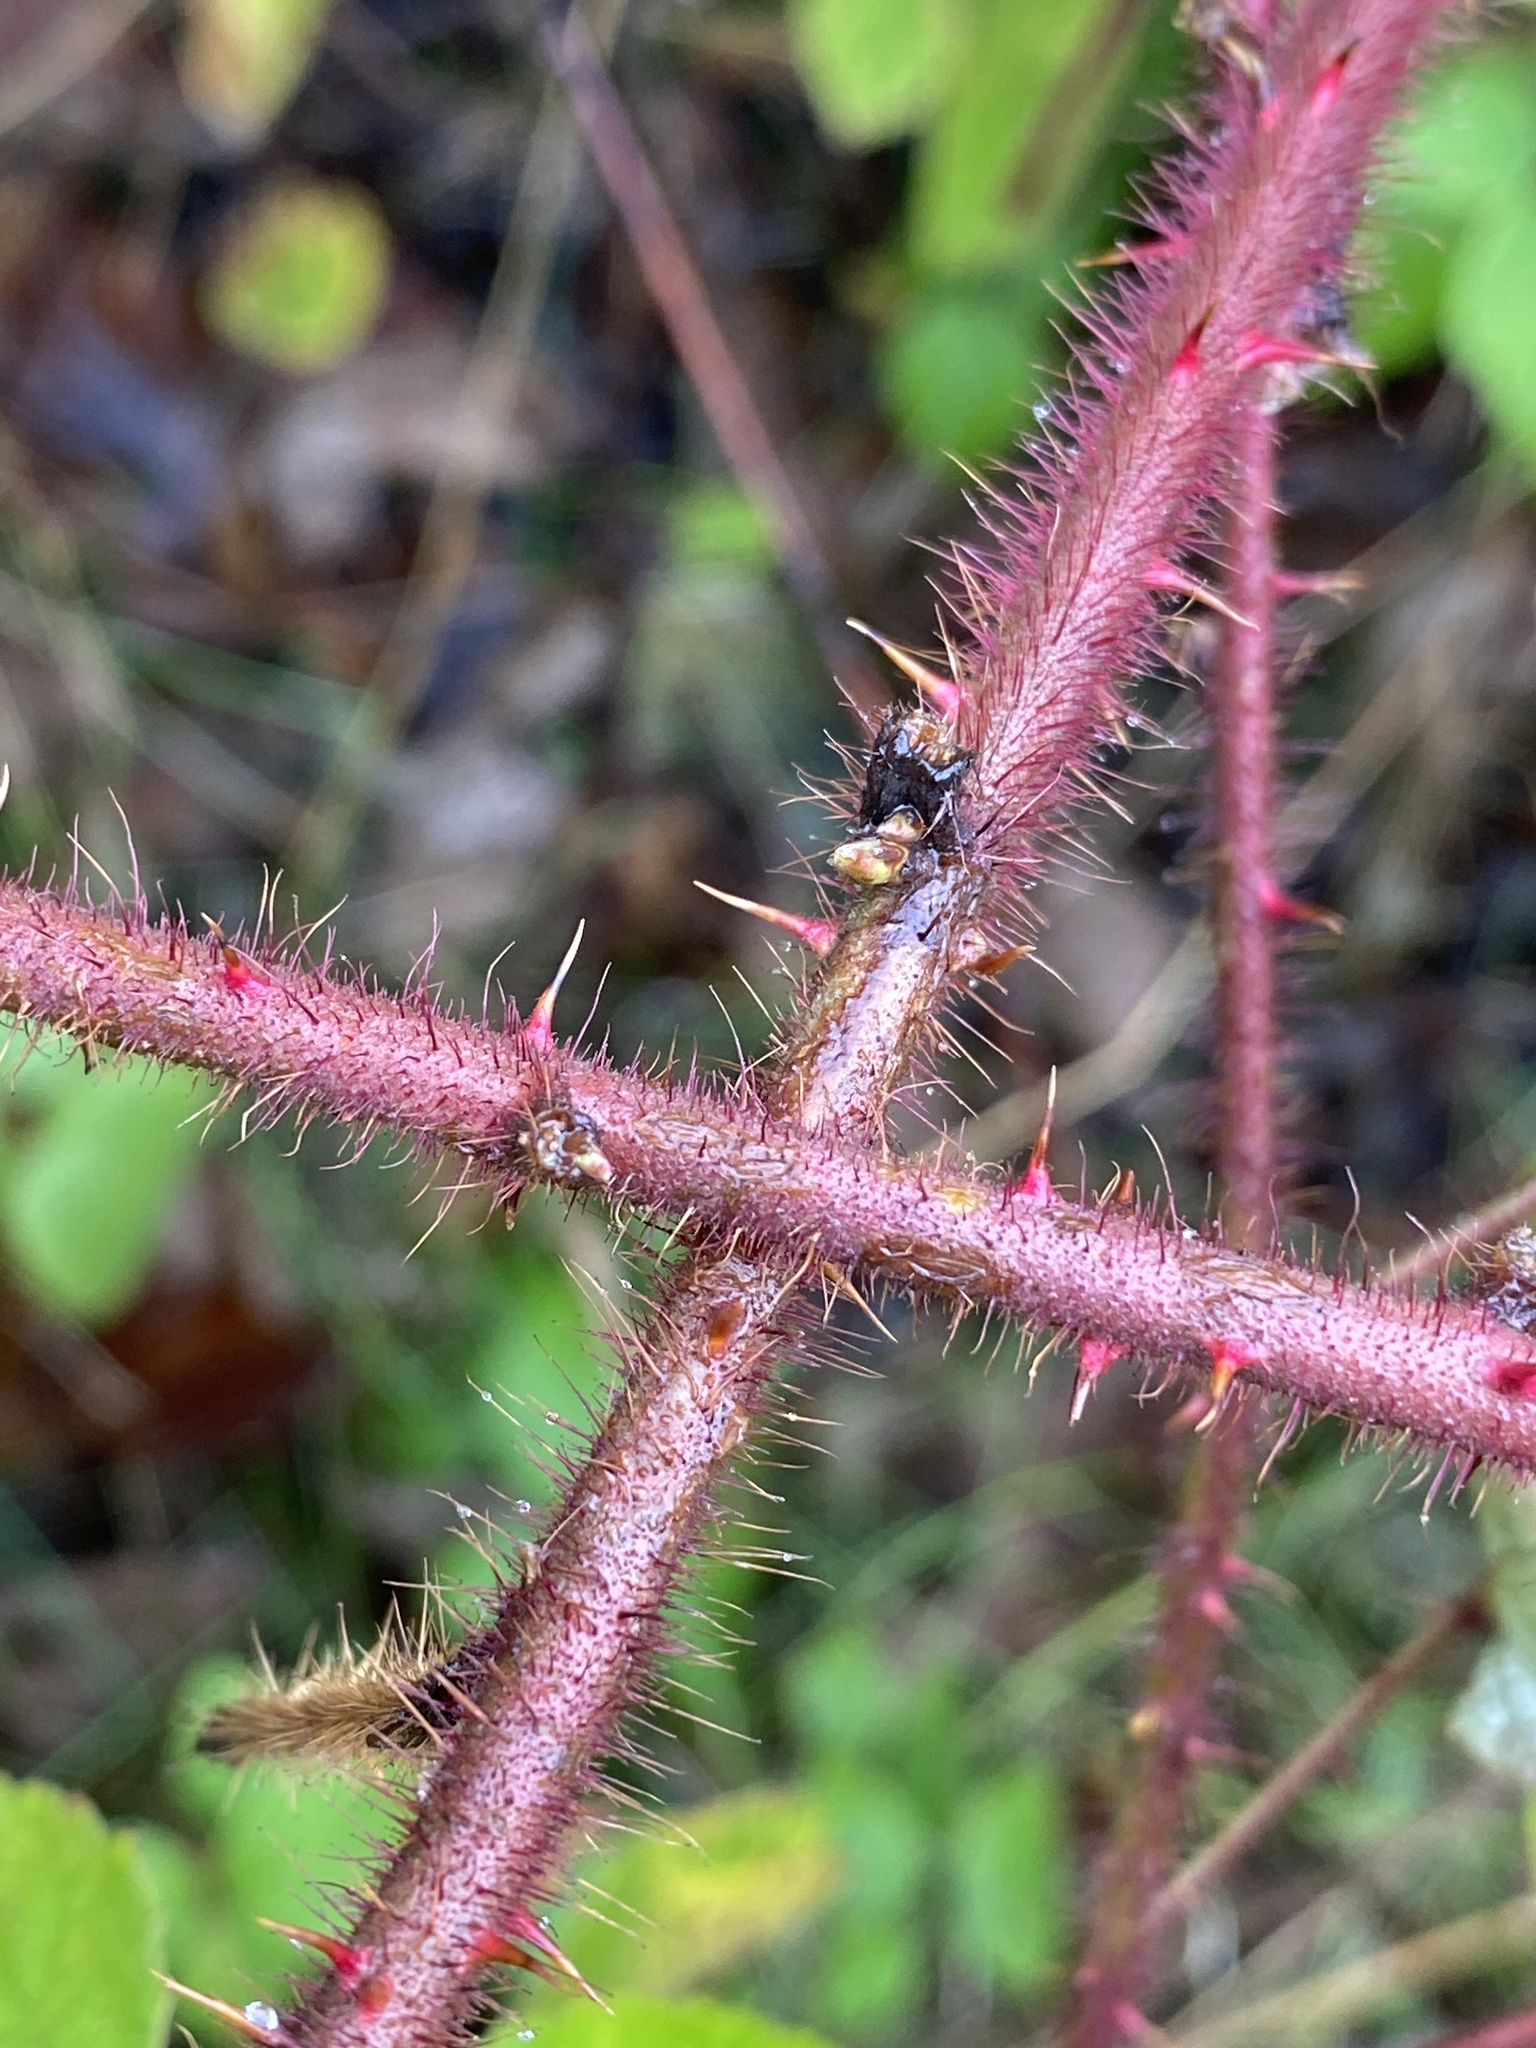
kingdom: Plantae
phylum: Tracheophyta
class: Magnoliopsida
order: Rosales
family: Rosaceae
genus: Rubus
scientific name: Rubus phoenicolasius
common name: Japanese wineberry
